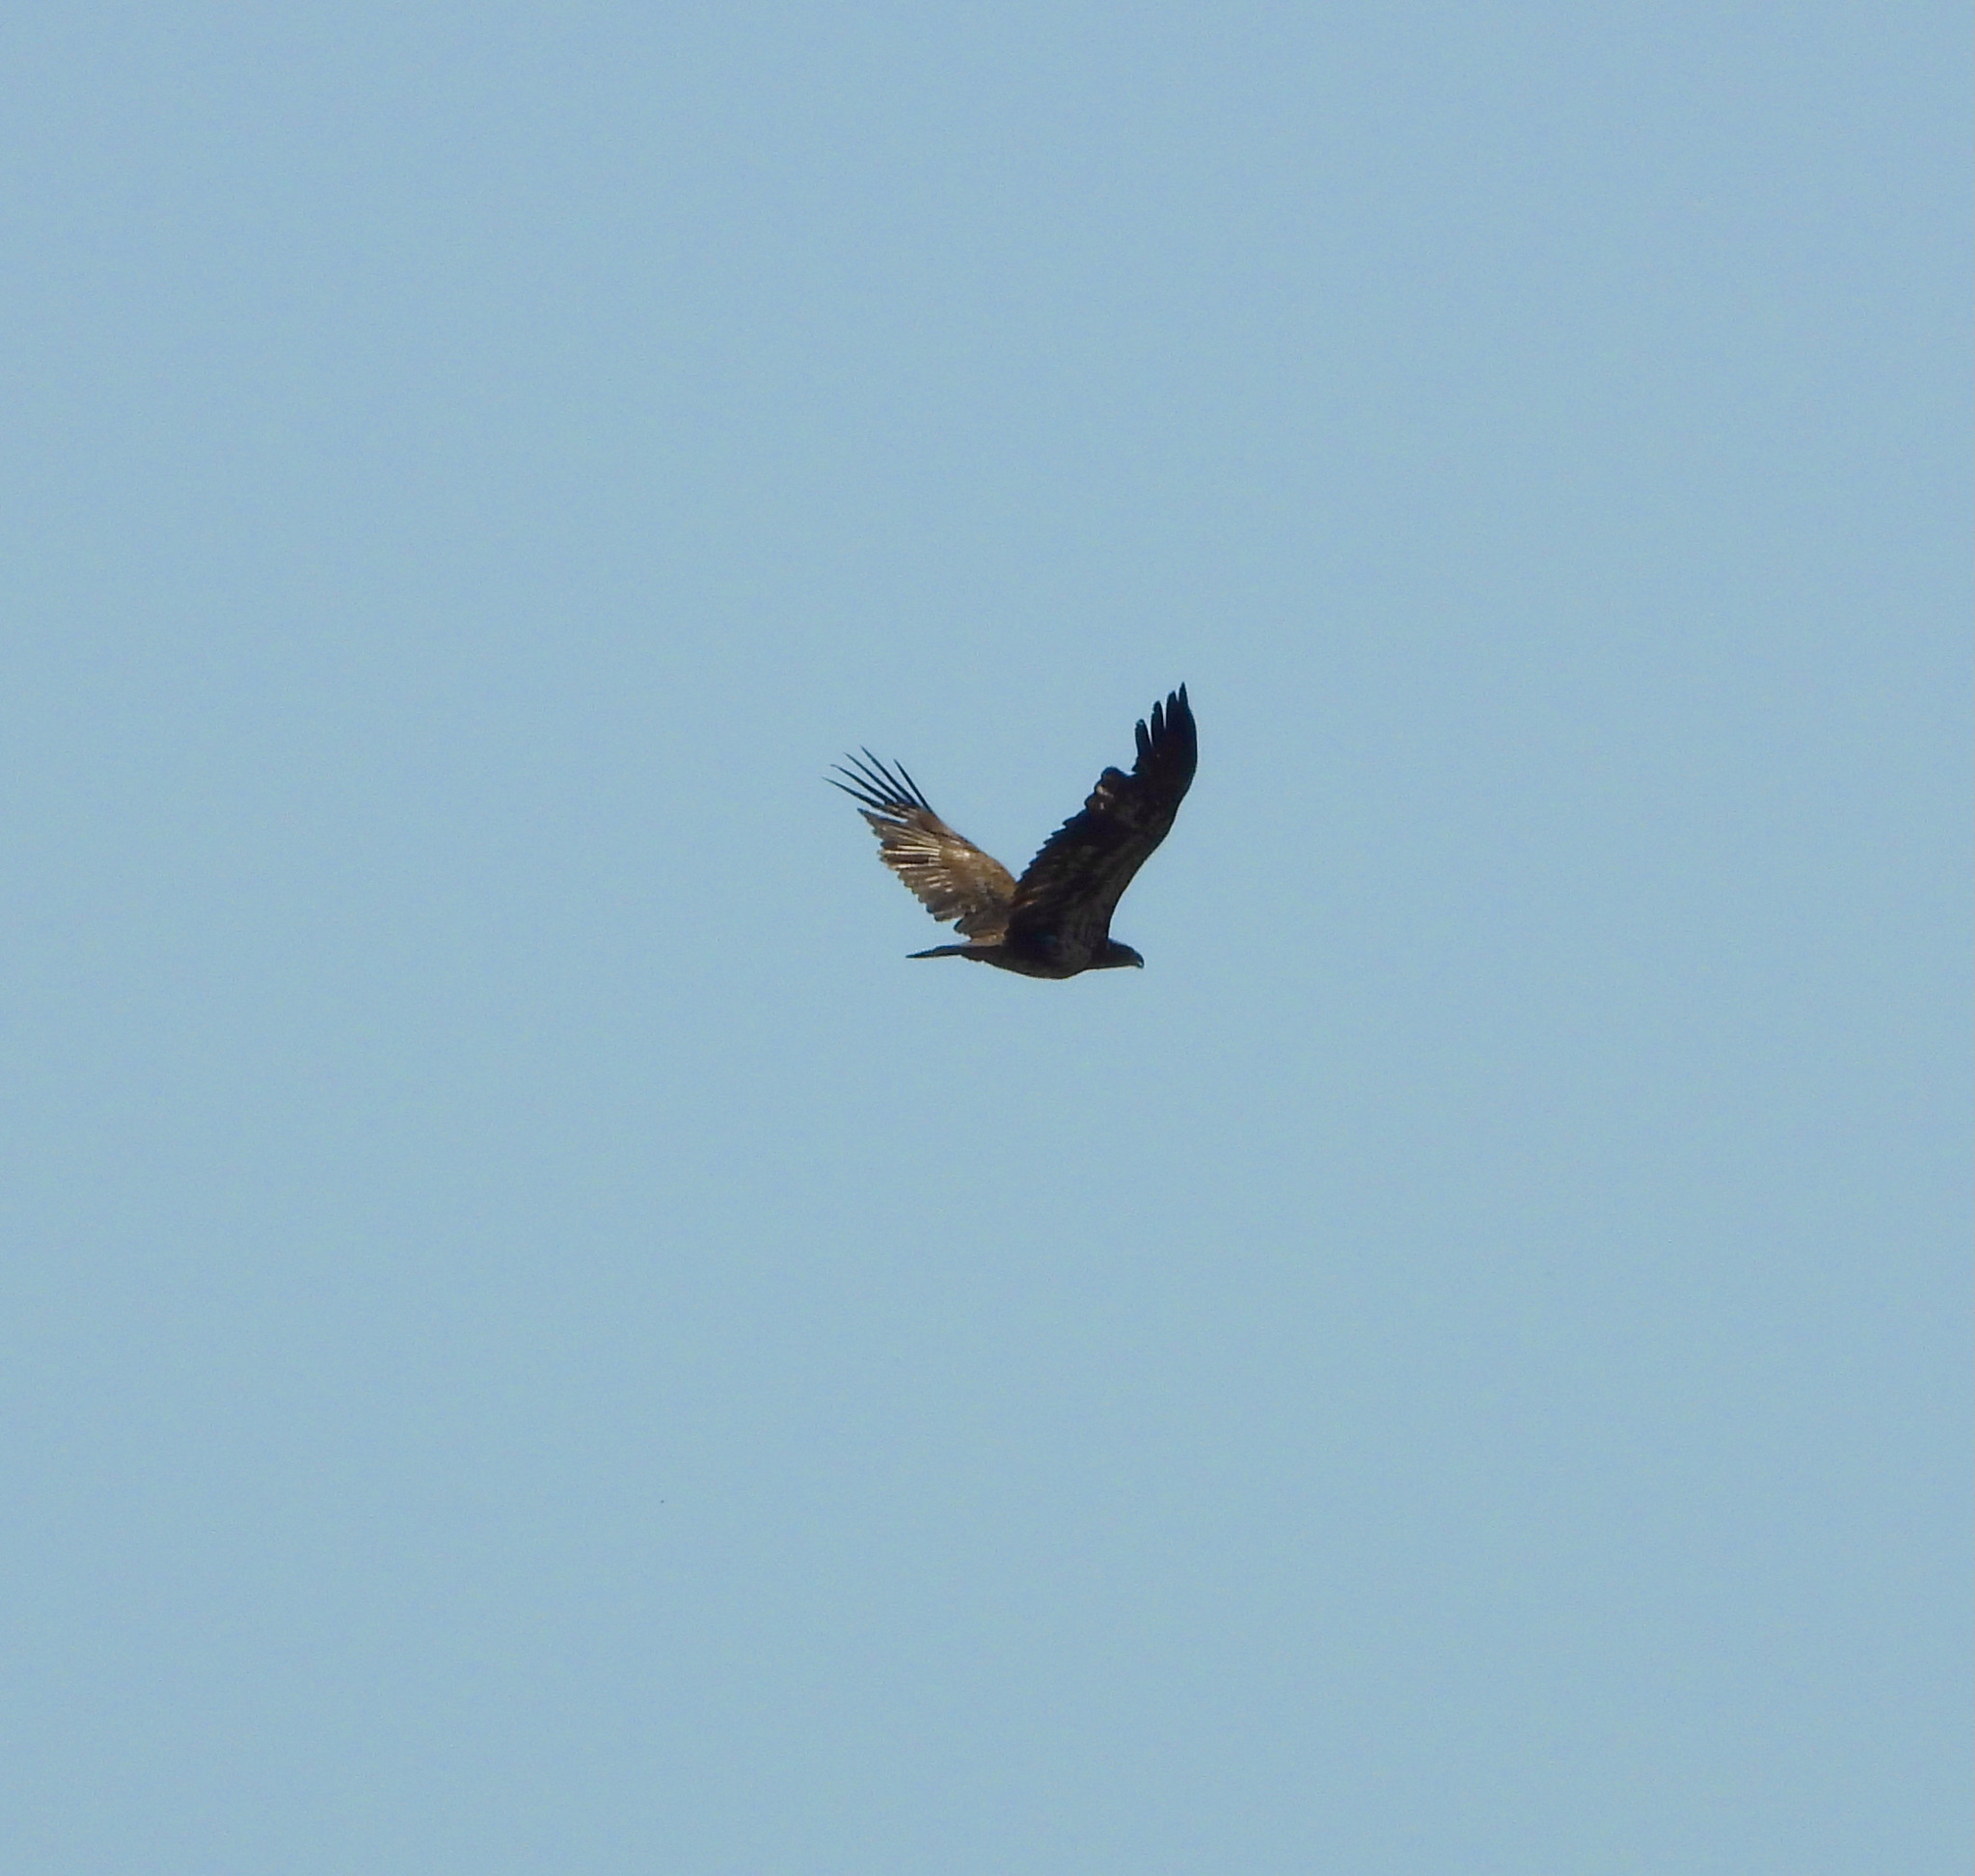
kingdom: Animalia
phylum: Chordata
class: Aves
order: Accipitriformes
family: Accipitridae
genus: Haliaeetus
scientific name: Haliaeetus leucocephalus
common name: Bald eagle
